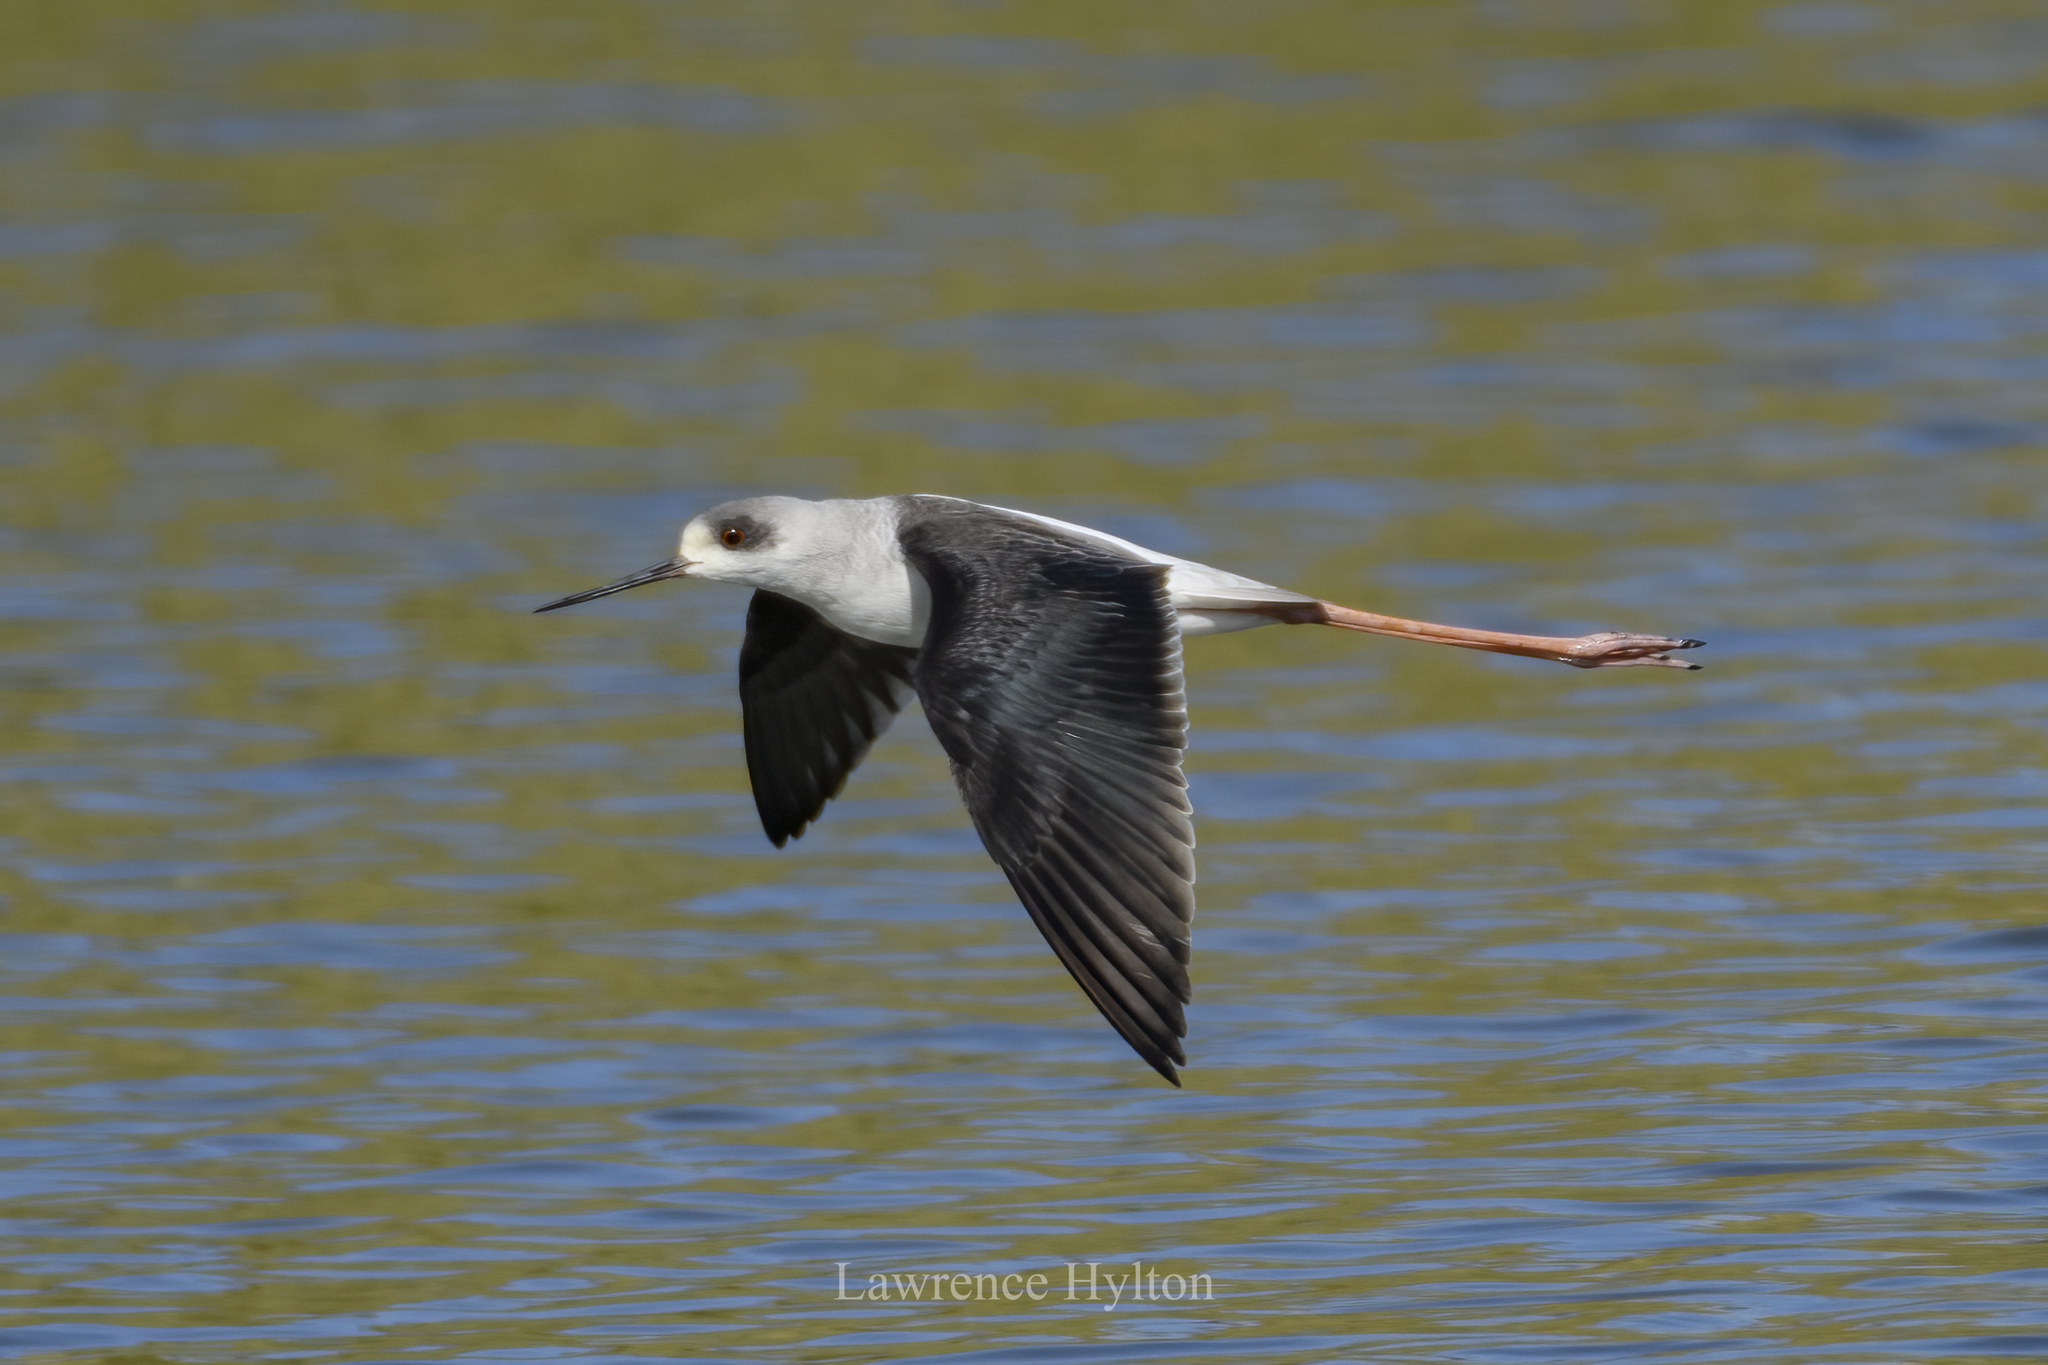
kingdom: Animalia
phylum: Chordata
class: Aves
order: Charadriiformes
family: Recurvirostridae
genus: Himantopus
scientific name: Himantopus himantopus
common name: Black-winged stilt
